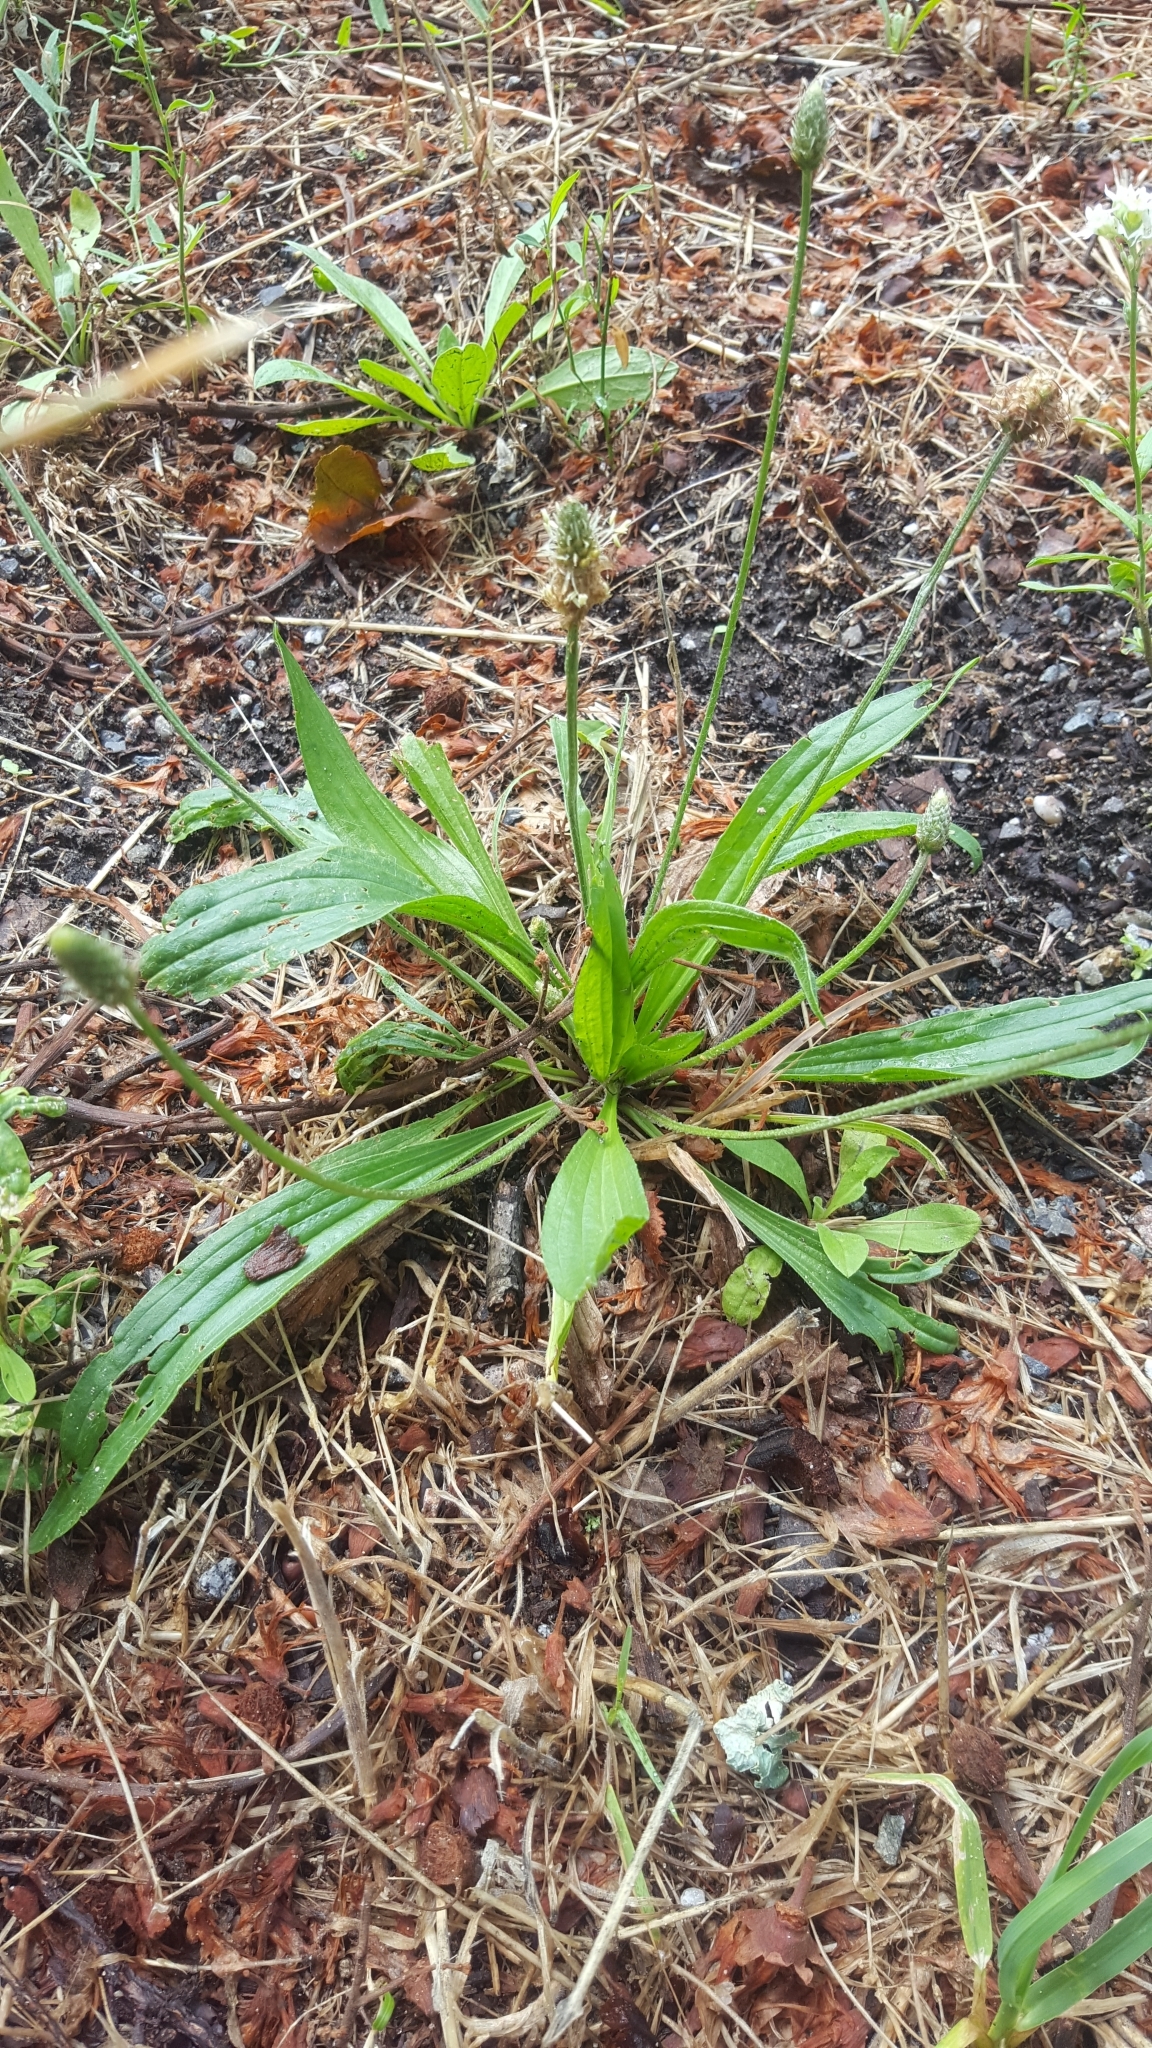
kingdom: Plantae
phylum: Tracheophyta
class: Magnoliopsida
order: Lamiales
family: Plantaginaceae
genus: Plantago
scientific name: Plantago lanceolata
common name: Ribwort plantain
